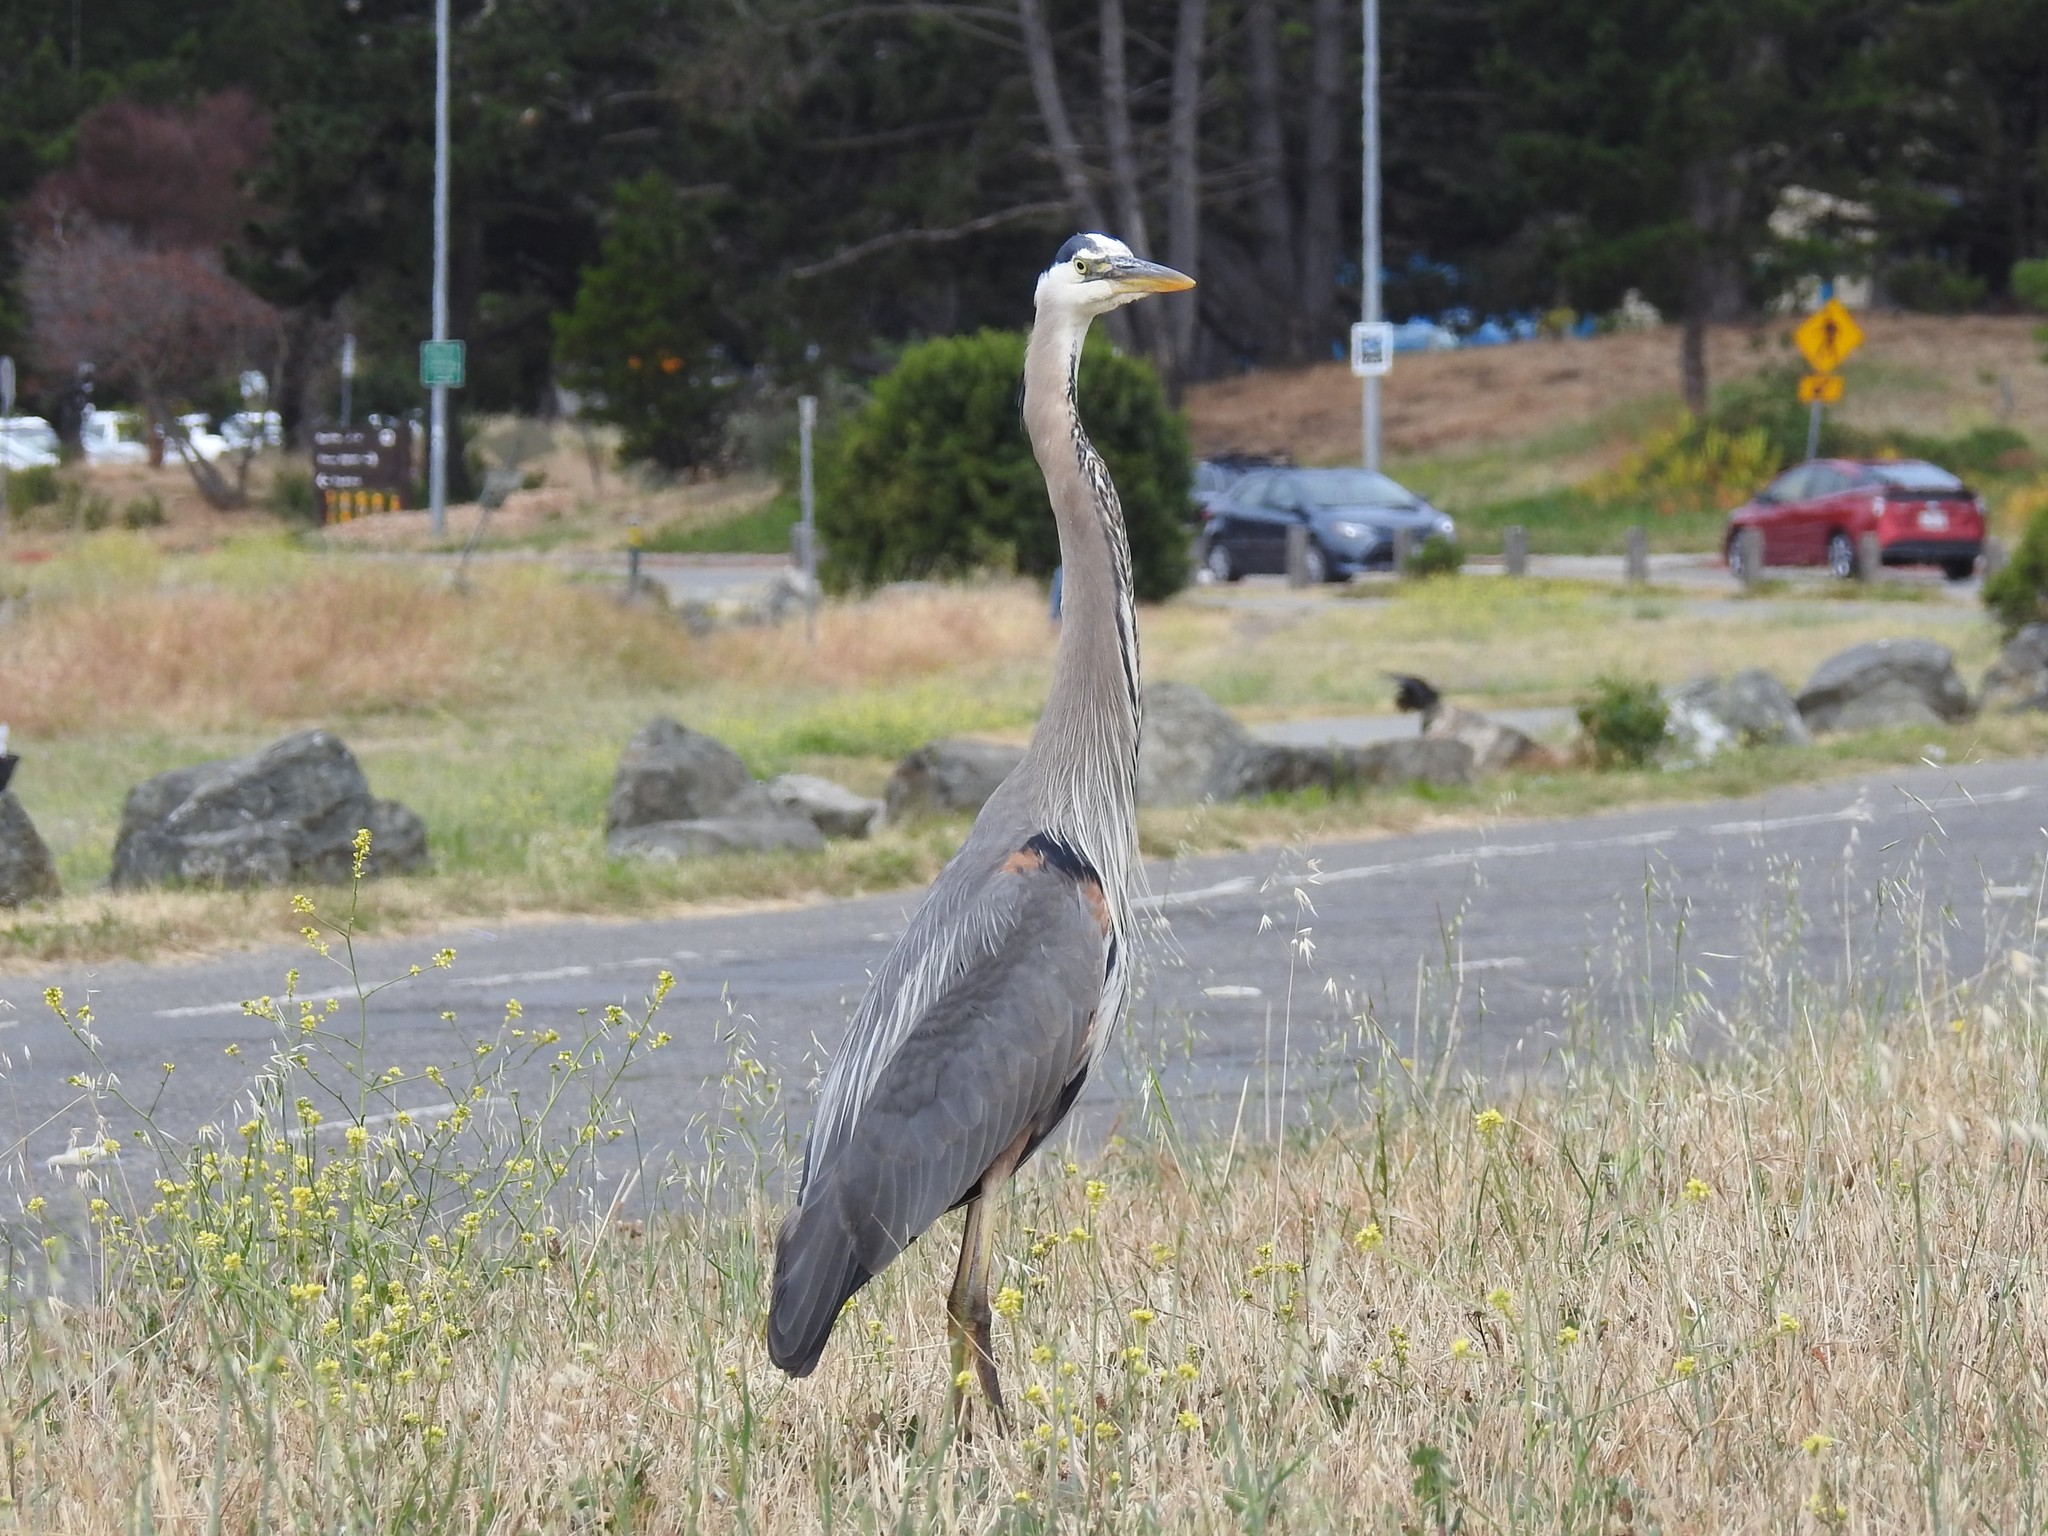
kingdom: Animalia
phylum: Chordata
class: Aves
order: Pelecaniformes
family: Ardeidae
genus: Ardea
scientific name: Ardea herodias
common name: Great blue heron
